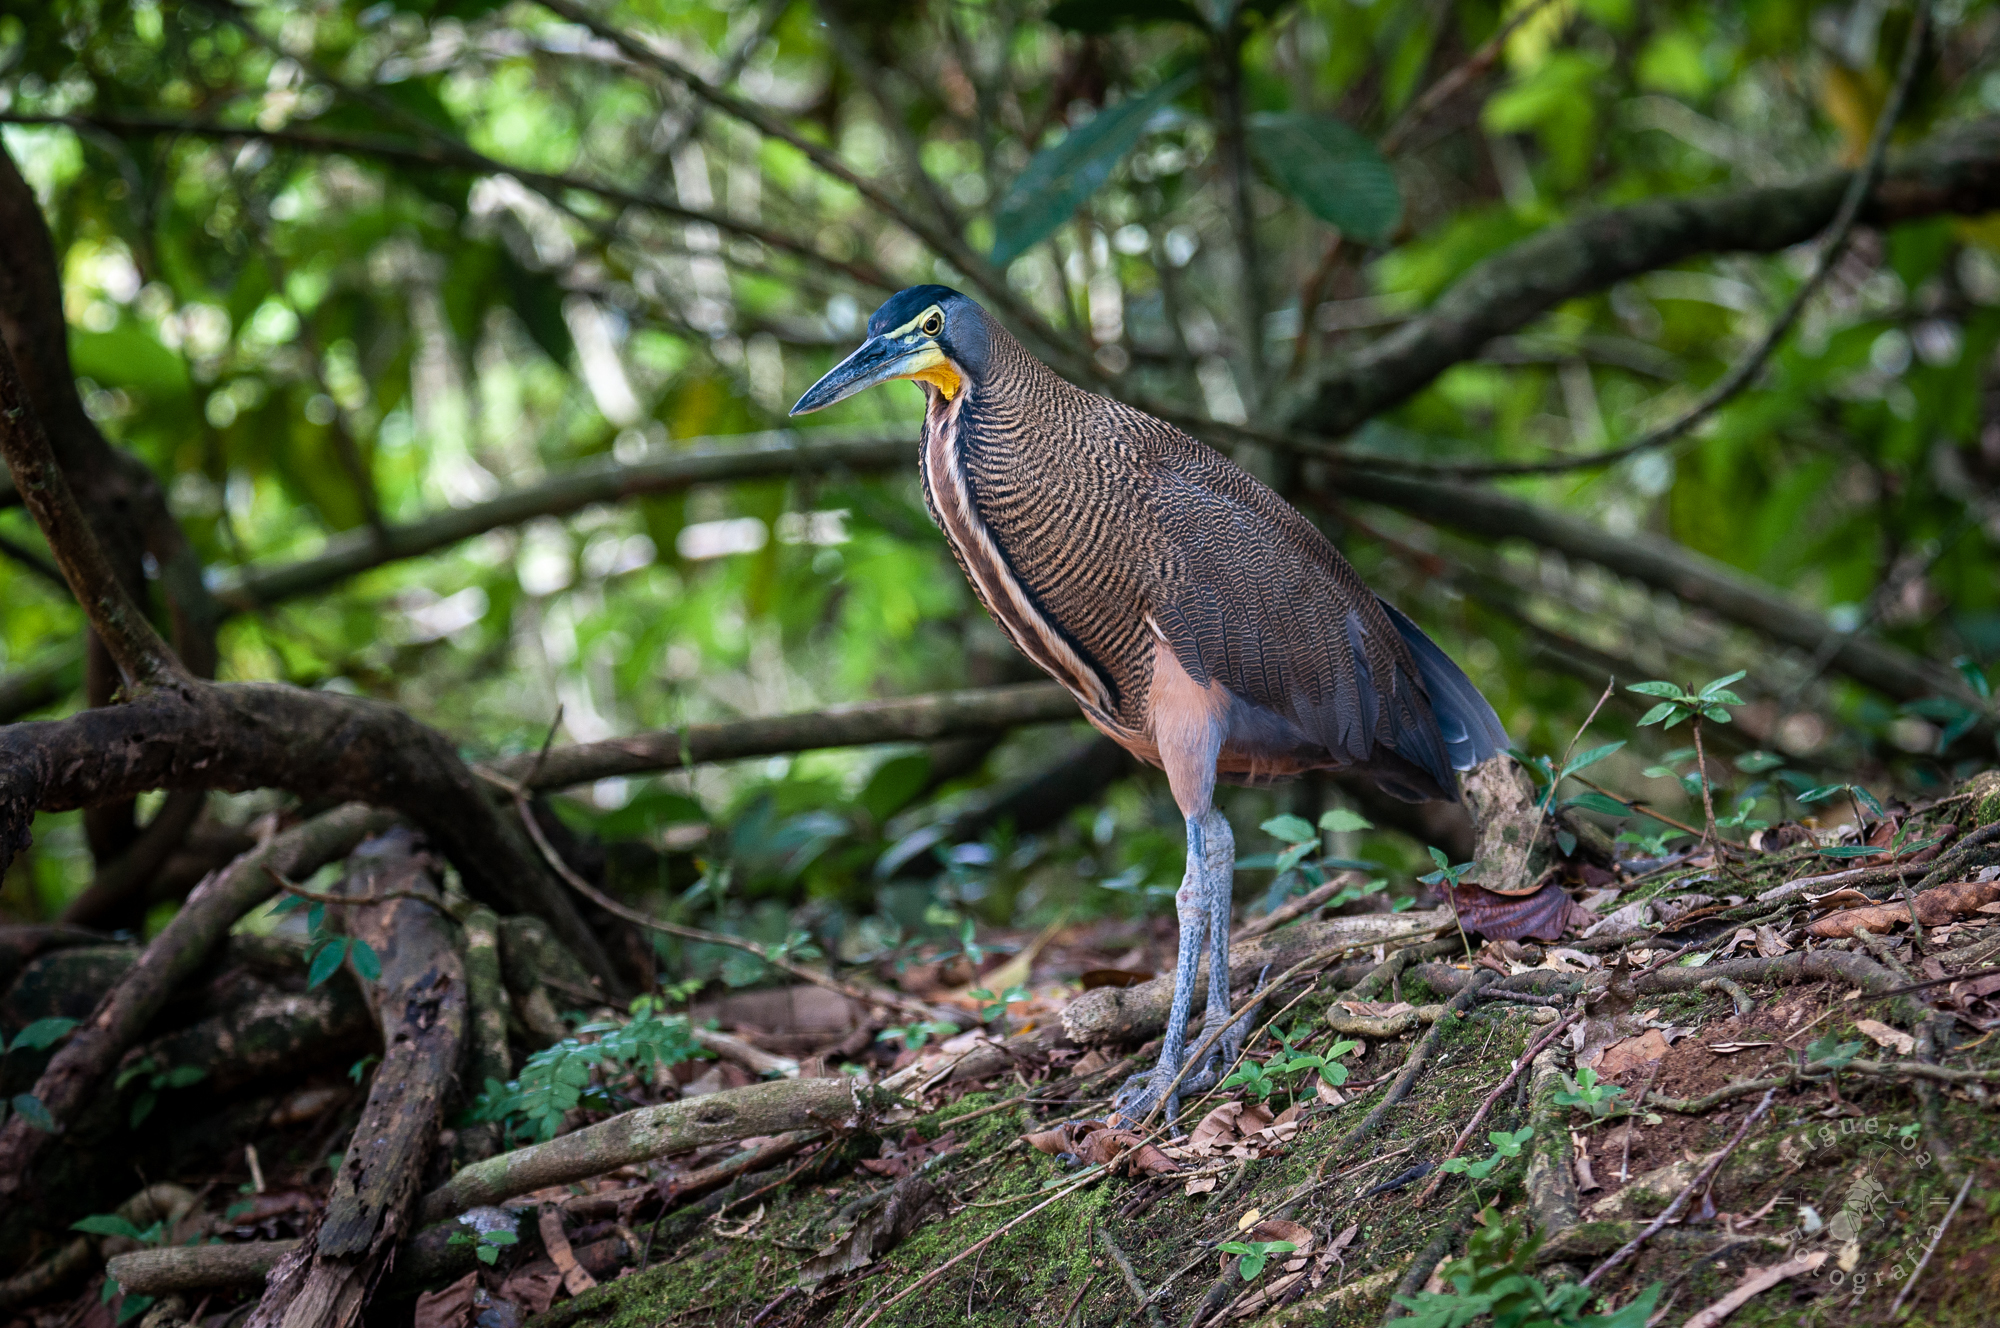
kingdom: Animalia
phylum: Chordata
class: Aves
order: Pelecaniformes
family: Ardeidae
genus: Tigrisoma
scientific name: Tigrisoma mexicanum
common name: Bare-throated tiger-heron
